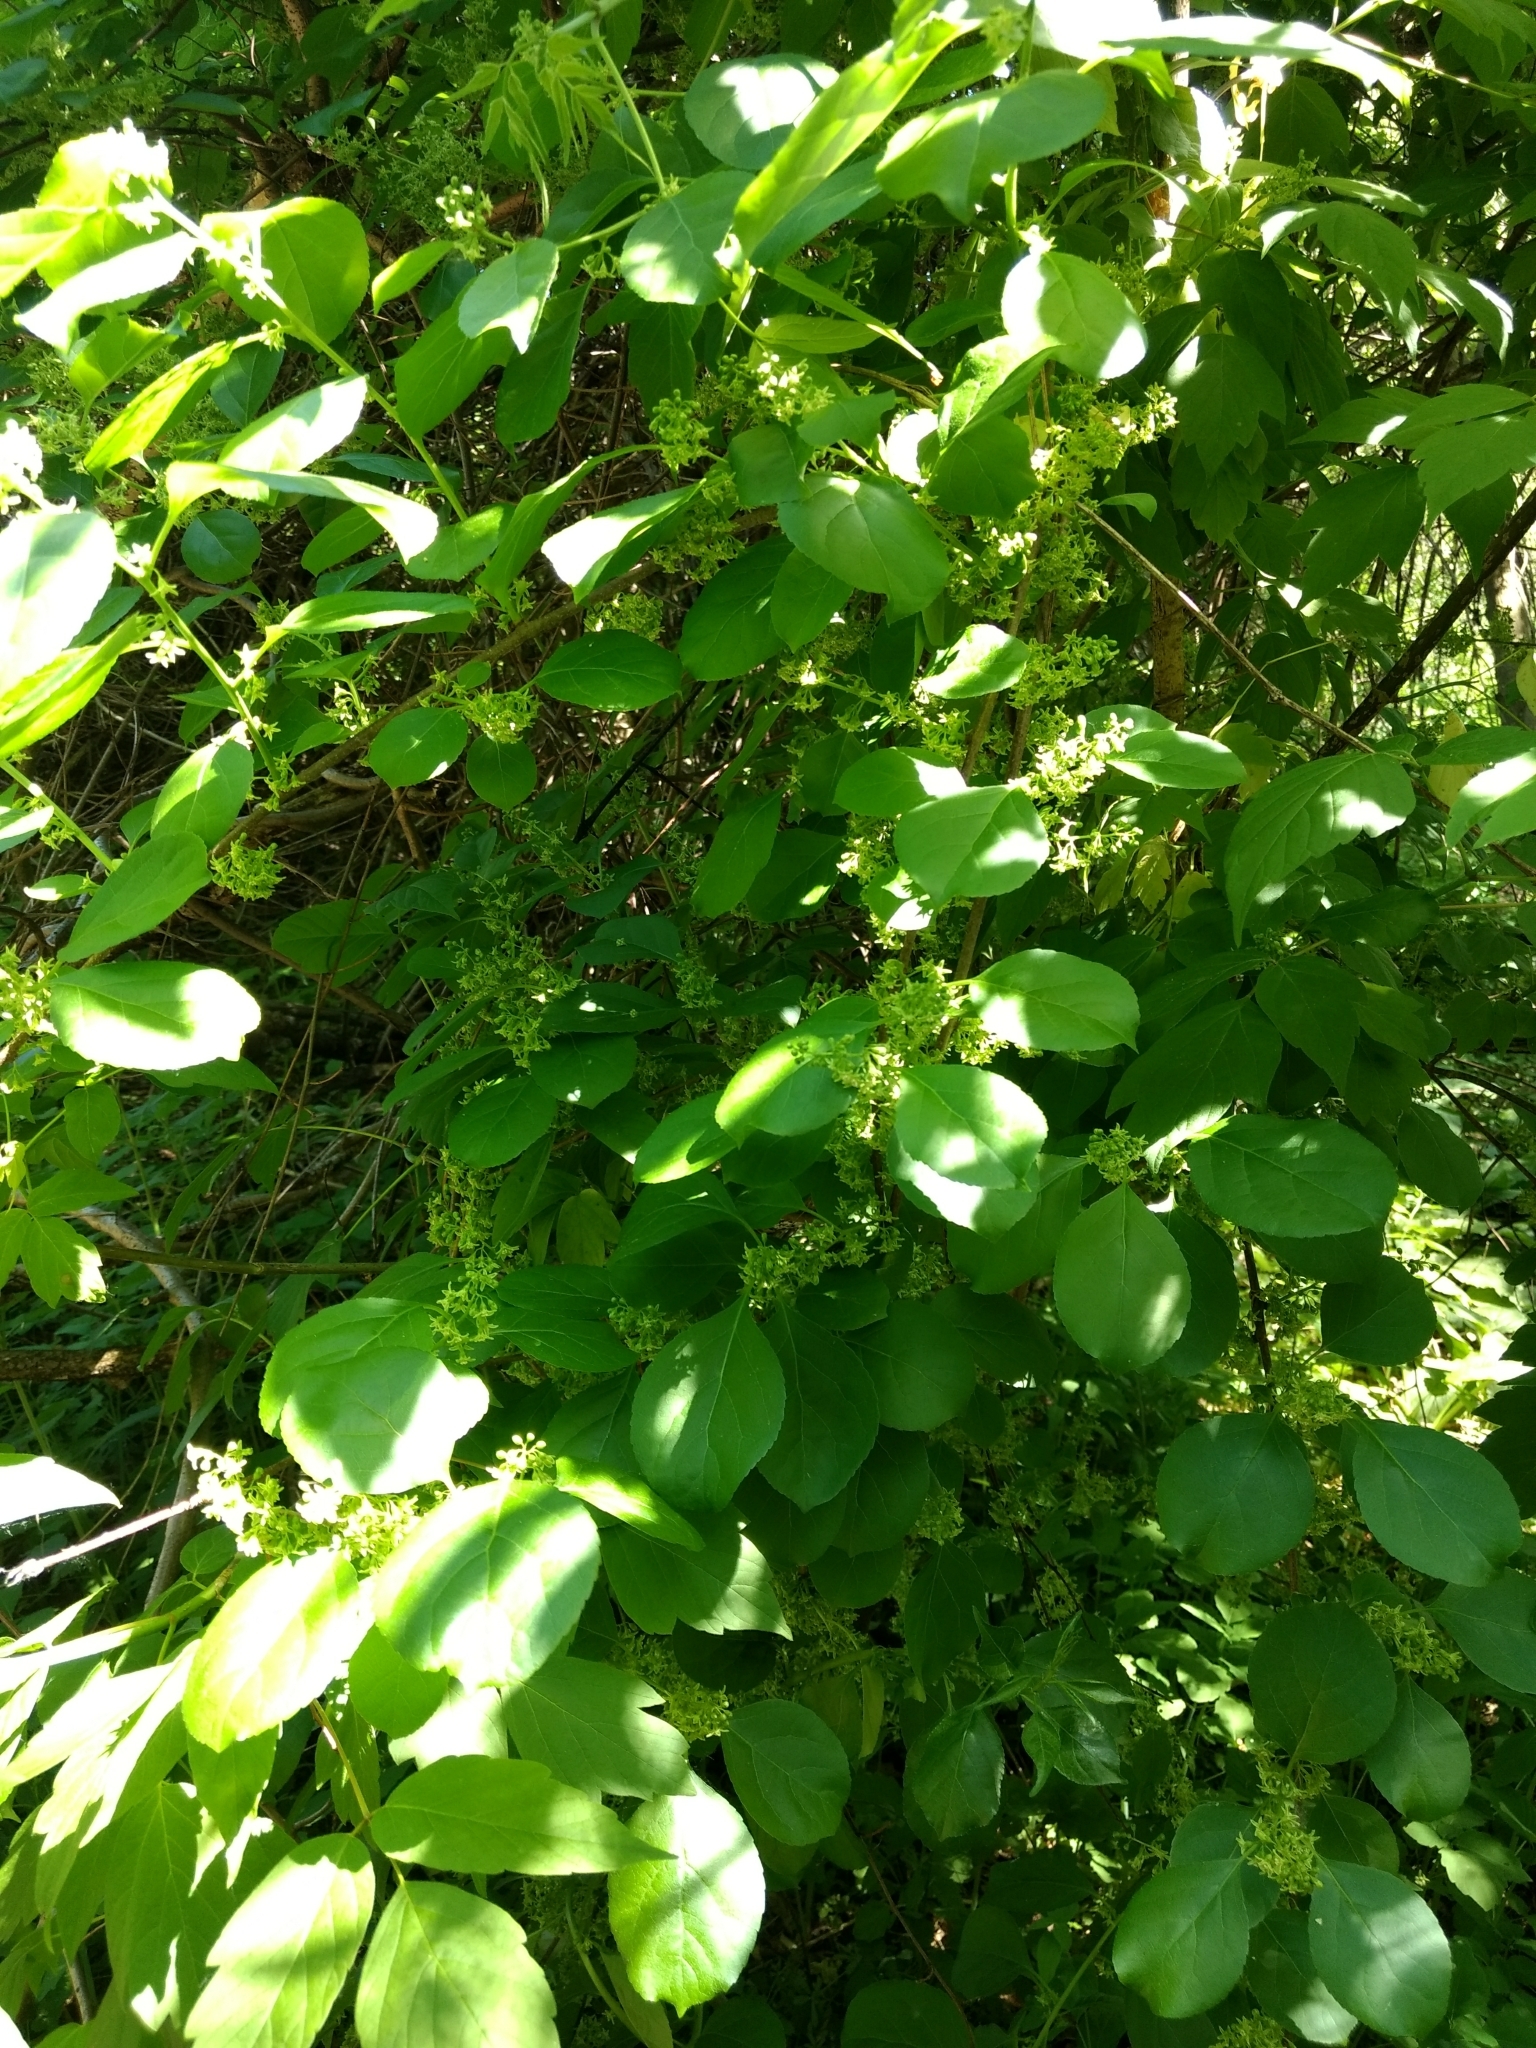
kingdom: Plantae
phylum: Tracheophyta
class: Magnoliopsida
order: Celastrales
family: Celastraceae
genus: Celastrus
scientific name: Celastrus orbiculatus
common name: Oriental bittersweet
